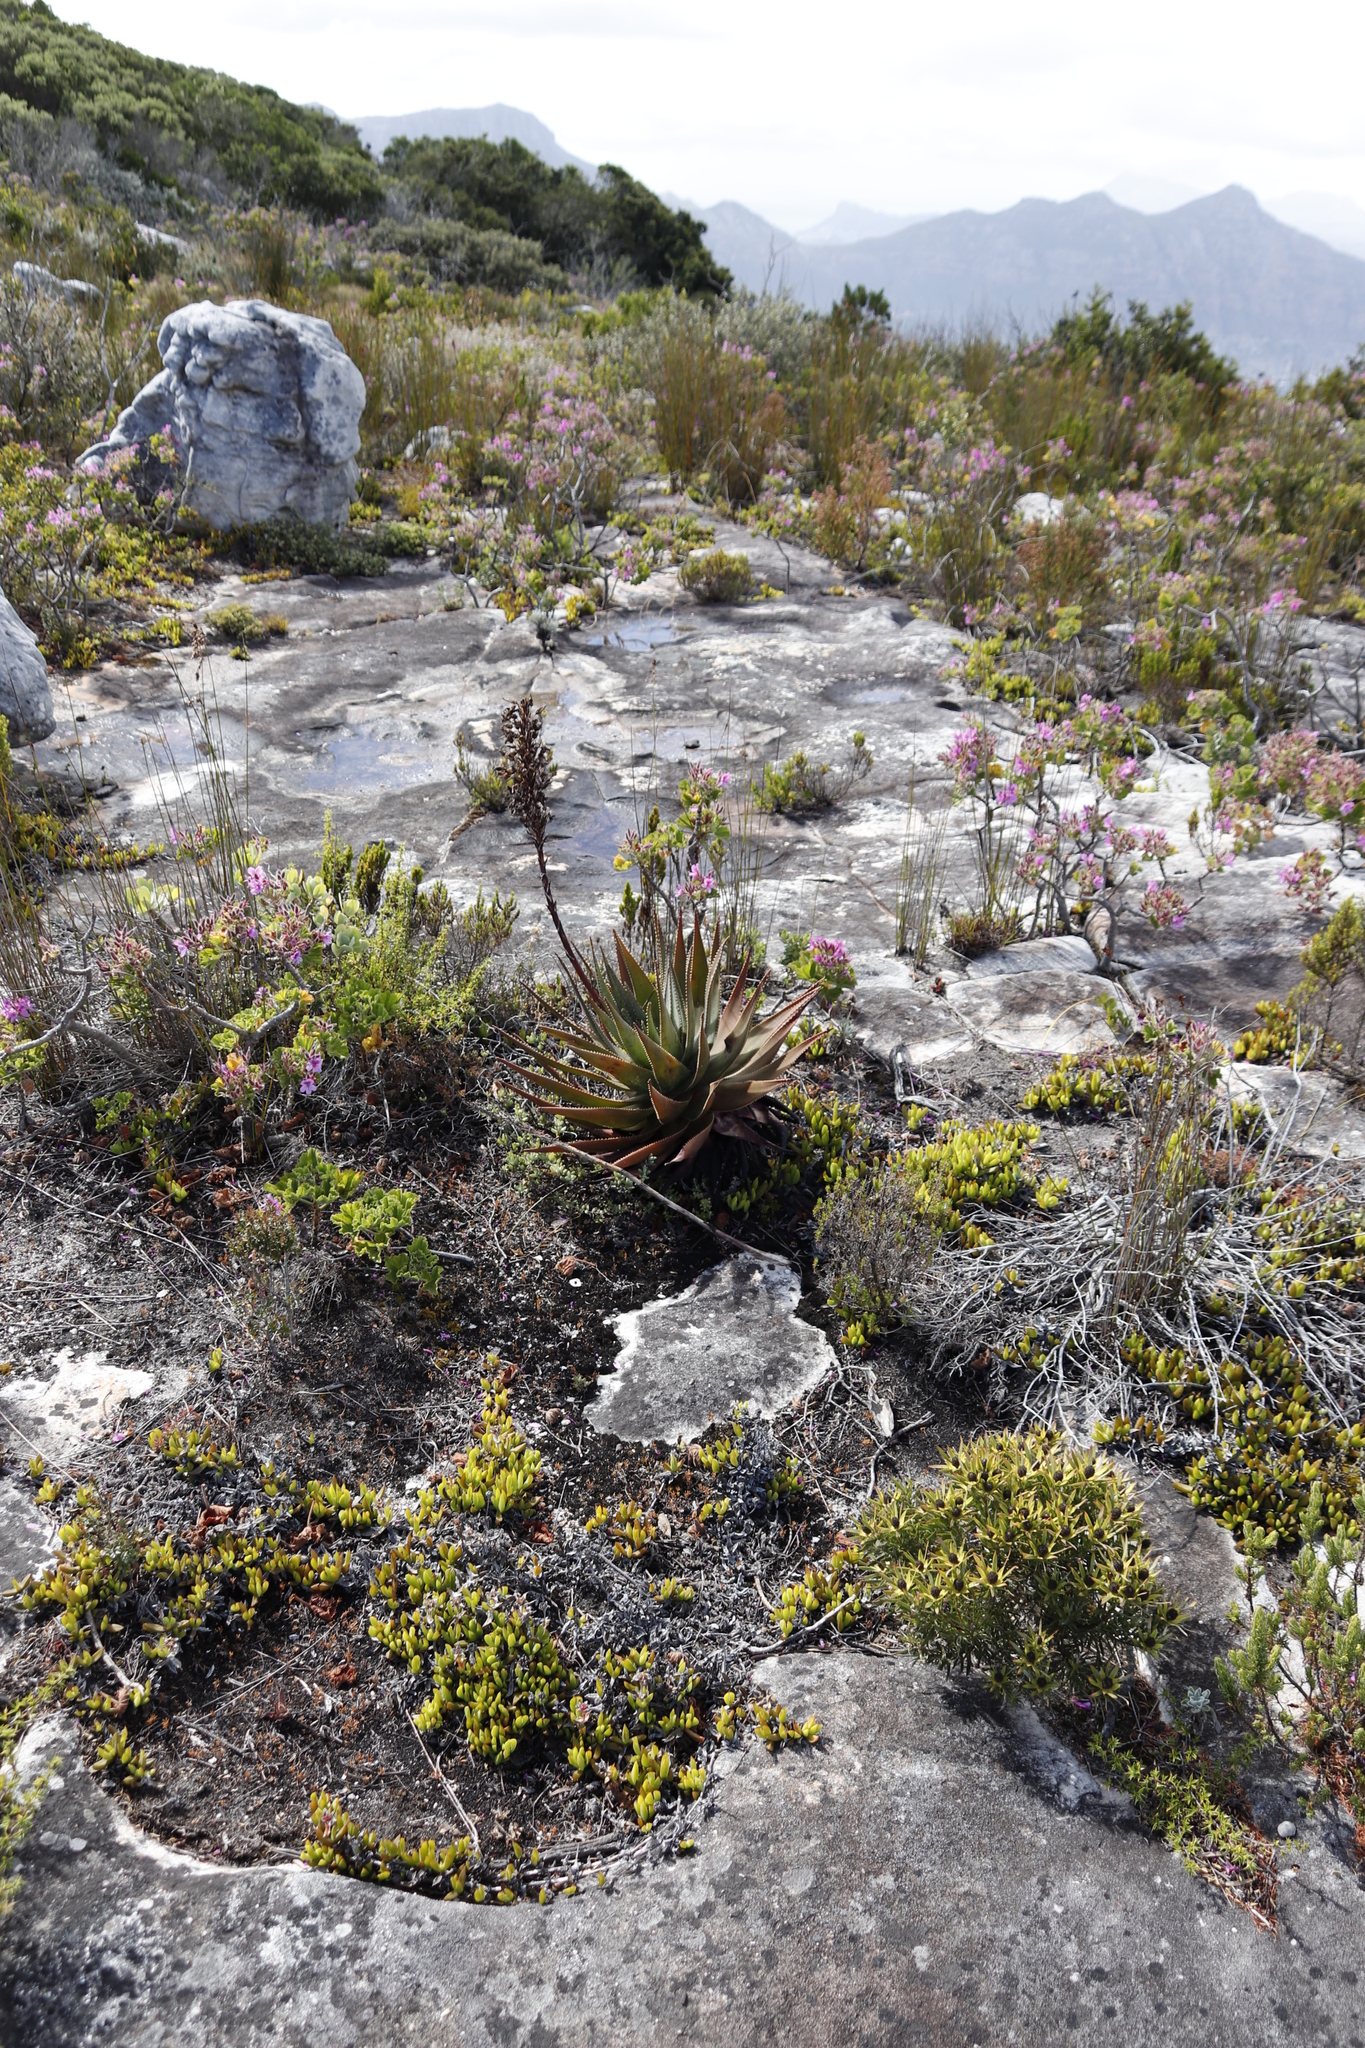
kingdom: Plantae
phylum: Tracheophyta
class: Liliopsida
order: Asparagales
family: Asphodelaceae
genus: Aloe
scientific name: Aloe succotrina
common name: Bombay aloe
